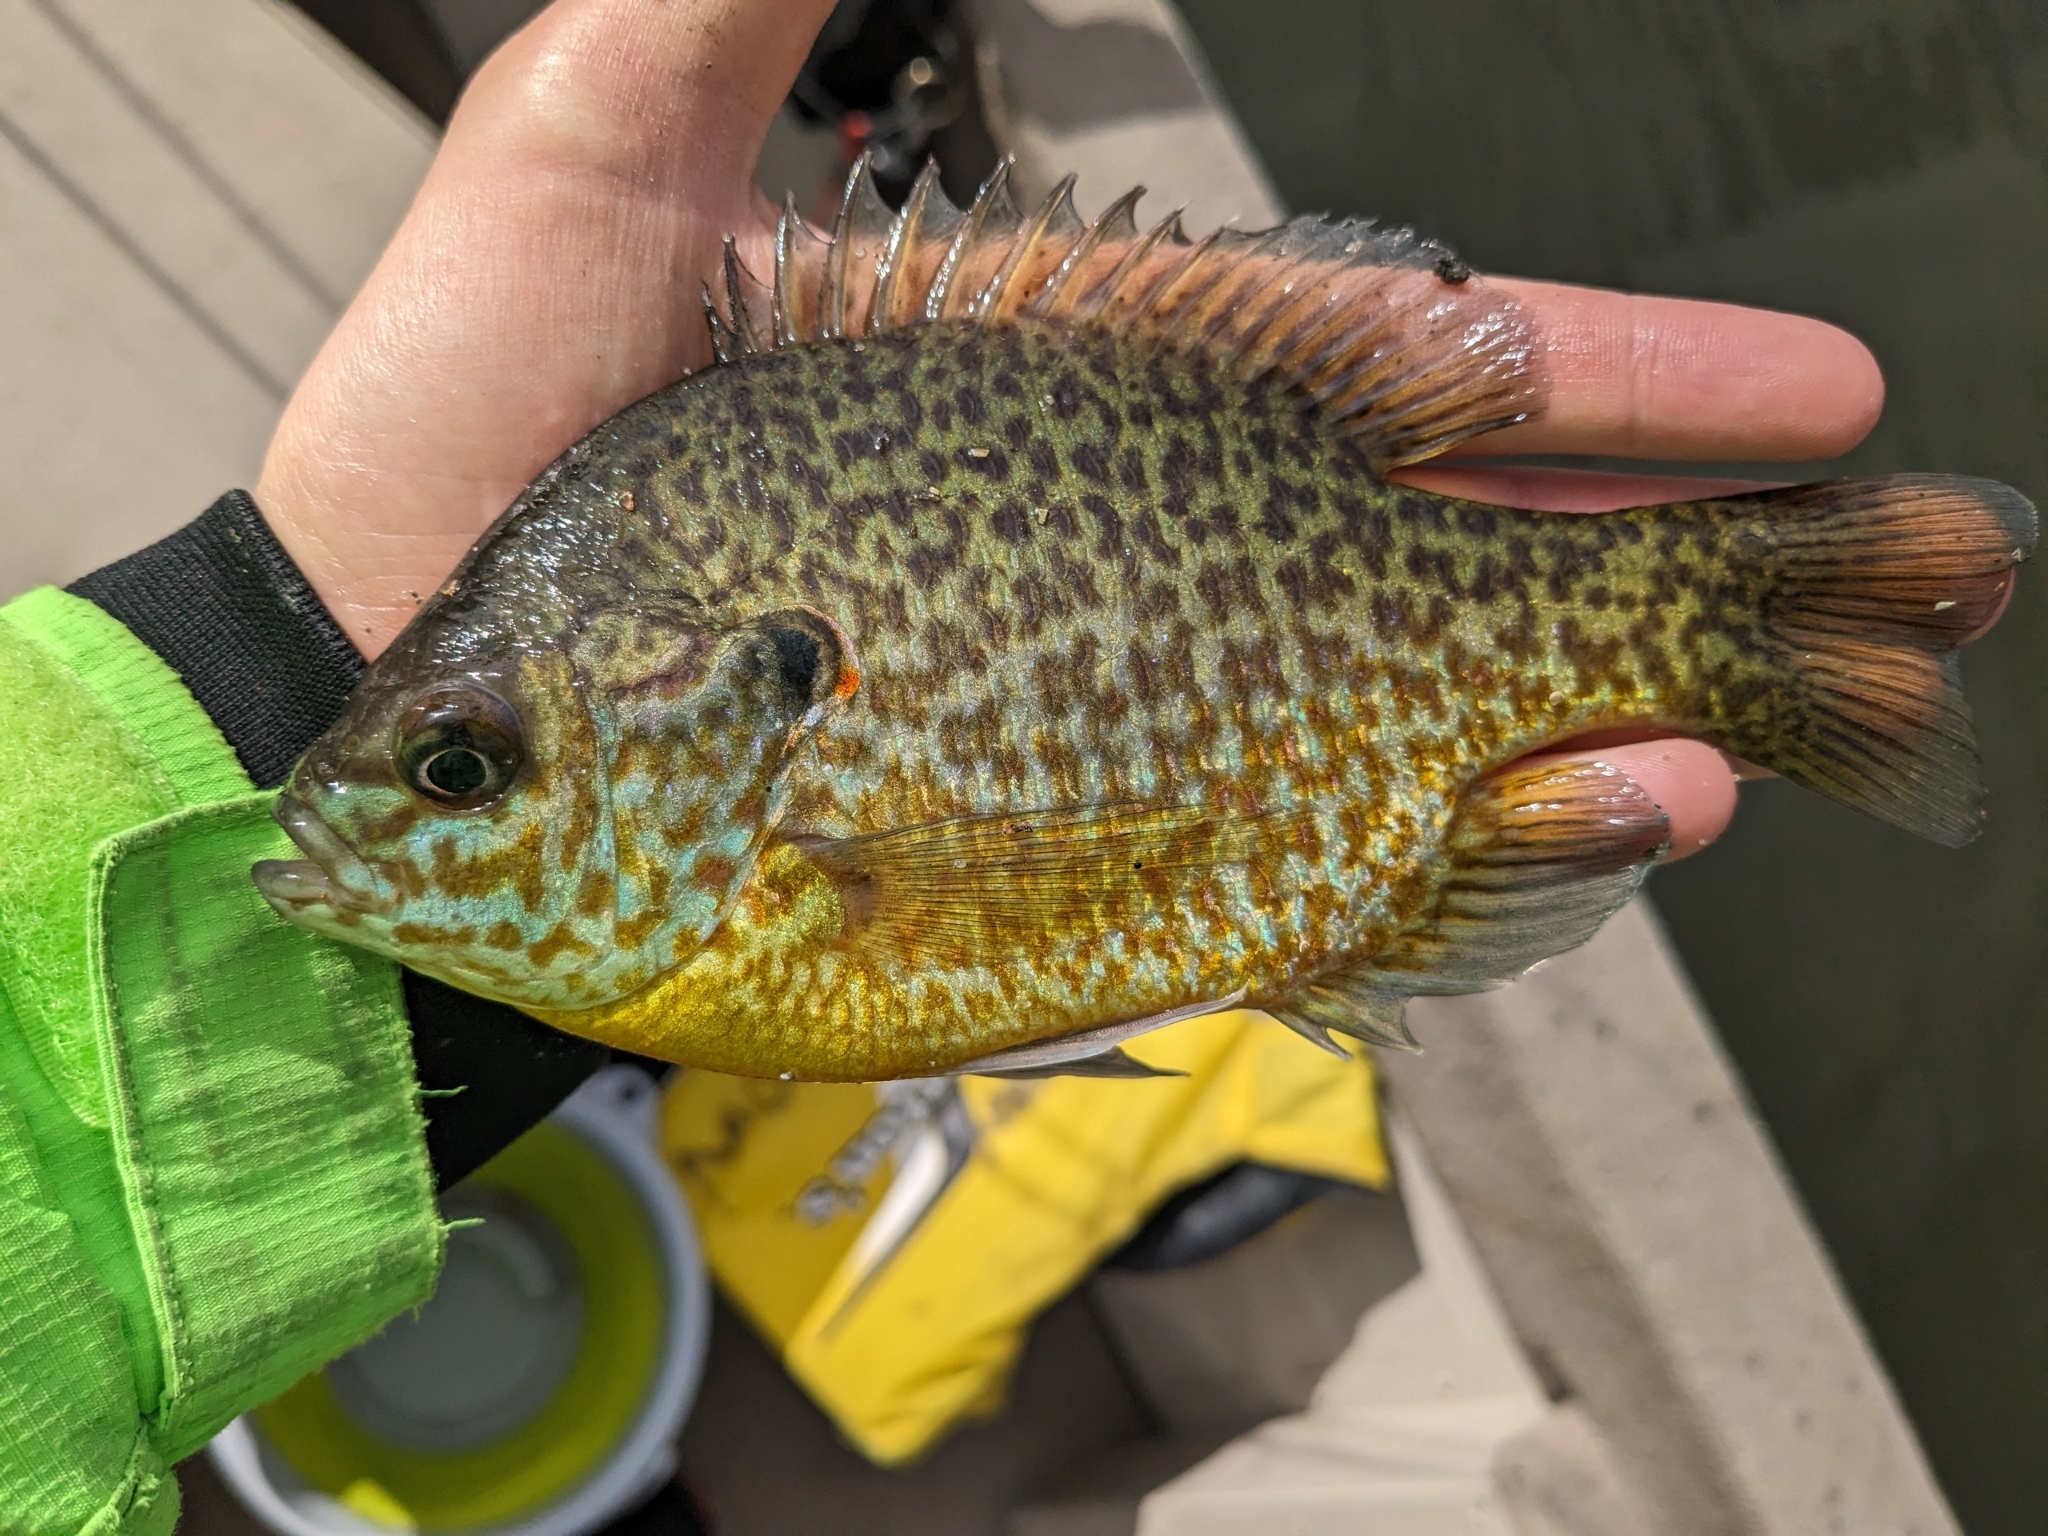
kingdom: Animalia
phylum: Chordata
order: Perciformes
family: Centrarchidae
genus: Lepomis
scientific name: Lepomis
